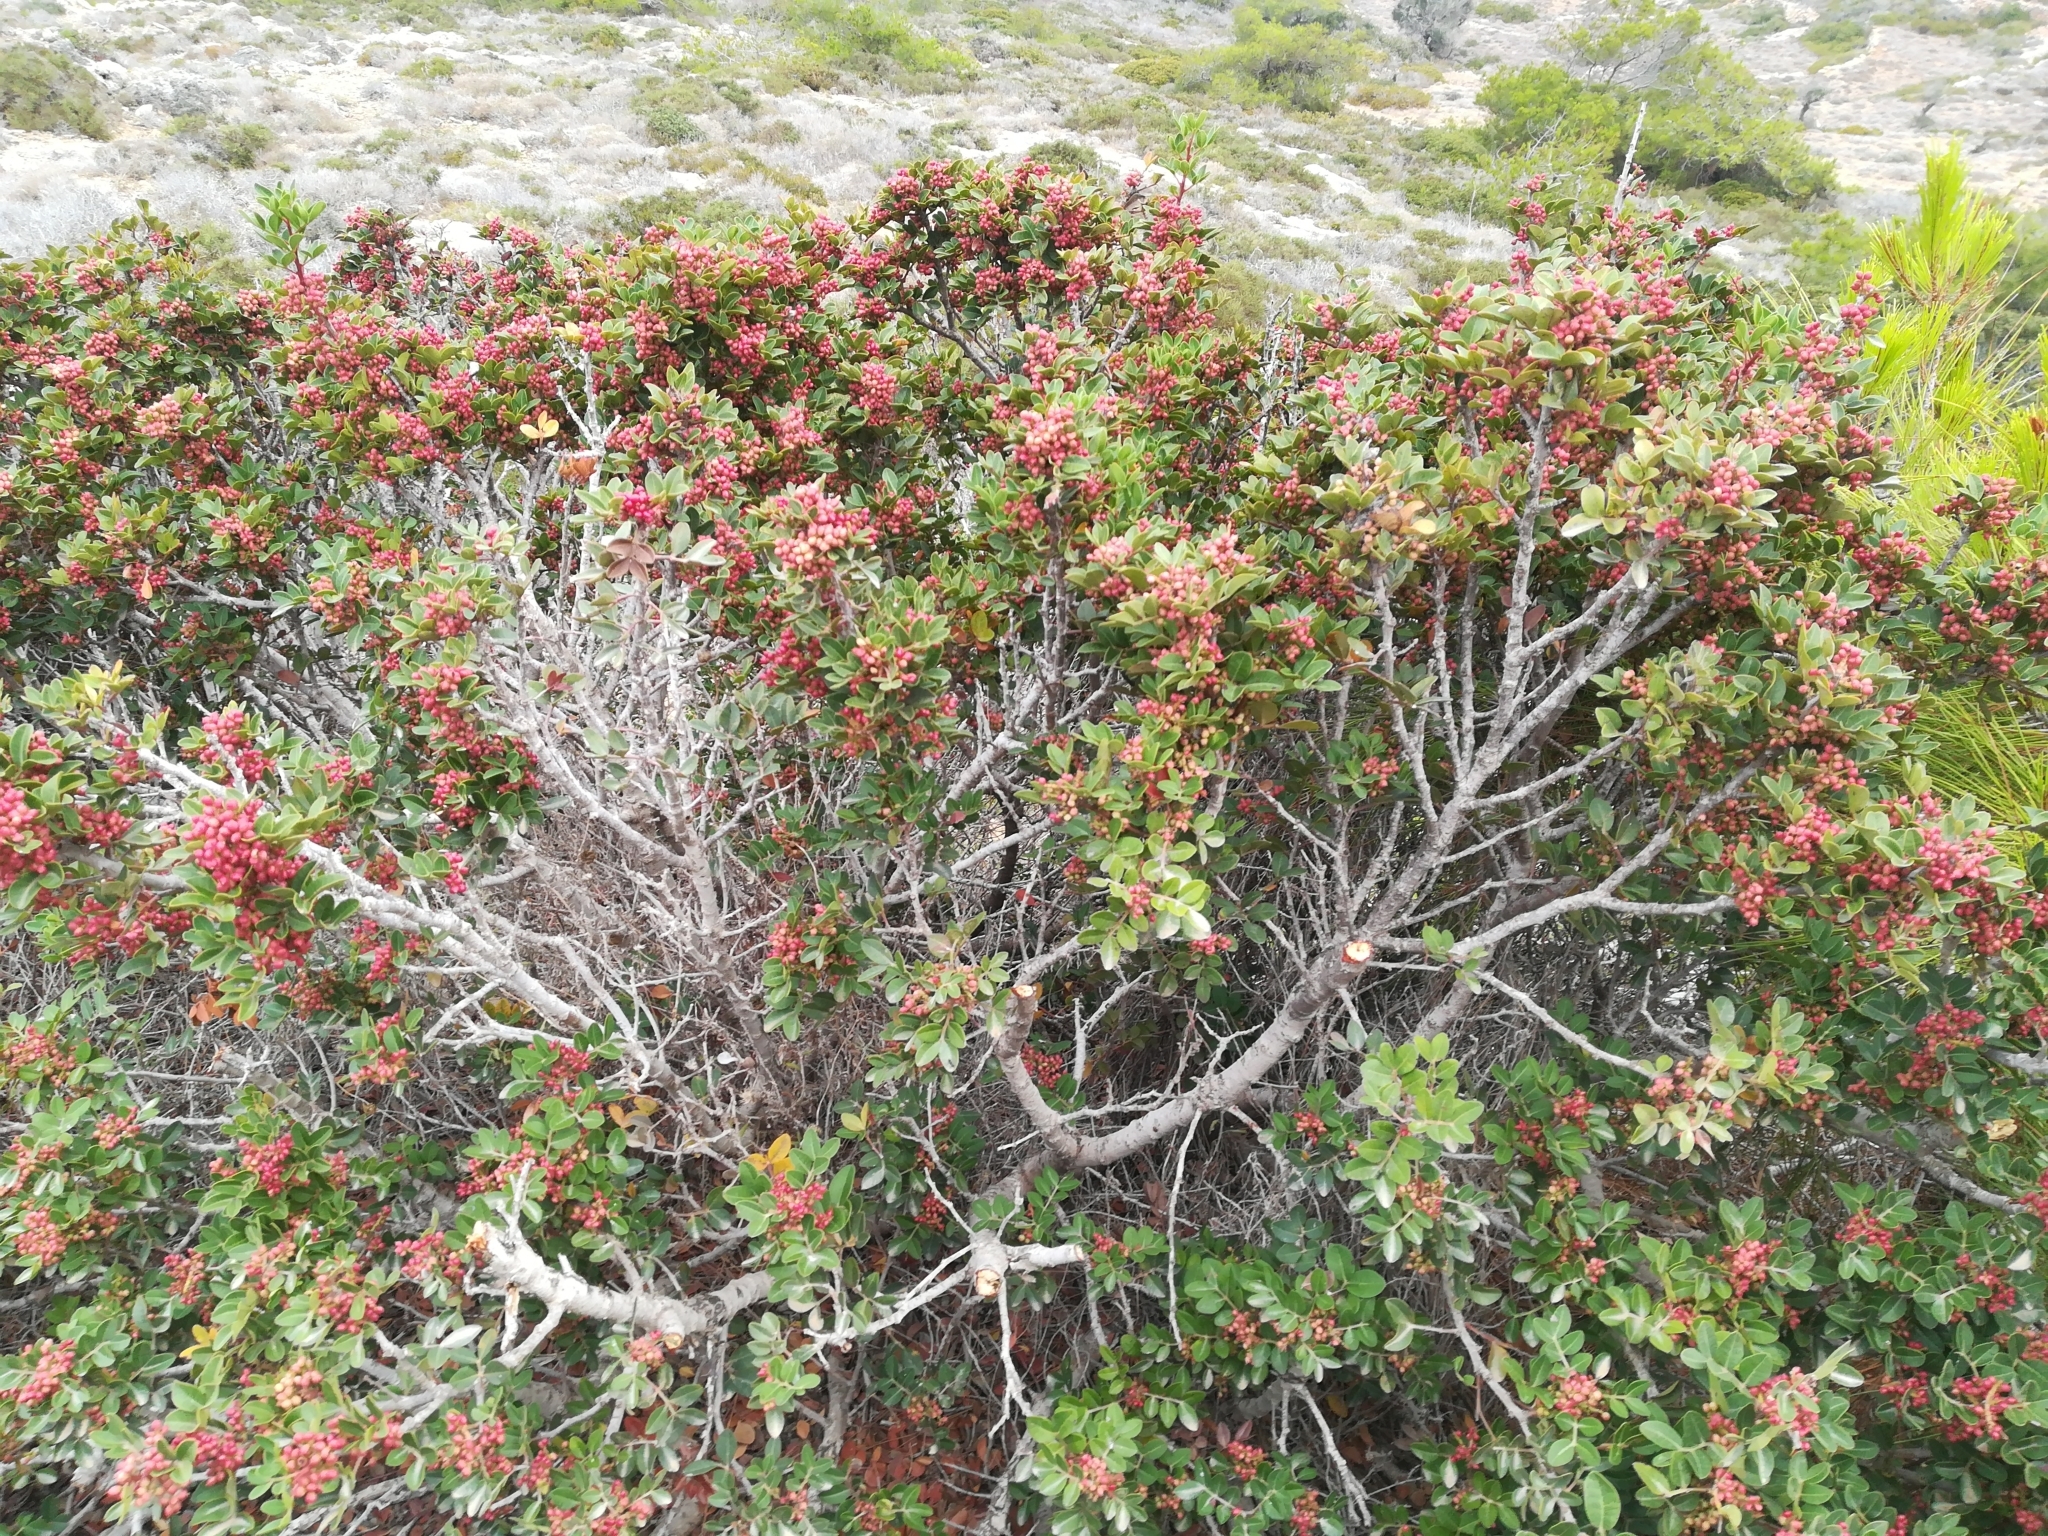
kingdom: Plantae
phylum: Tracheophyta
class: Magnoliopsida
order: Sapindales
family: Anacardiaceae
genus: Pistacia
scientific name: Pistacia lentiscus
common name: Lentisk
